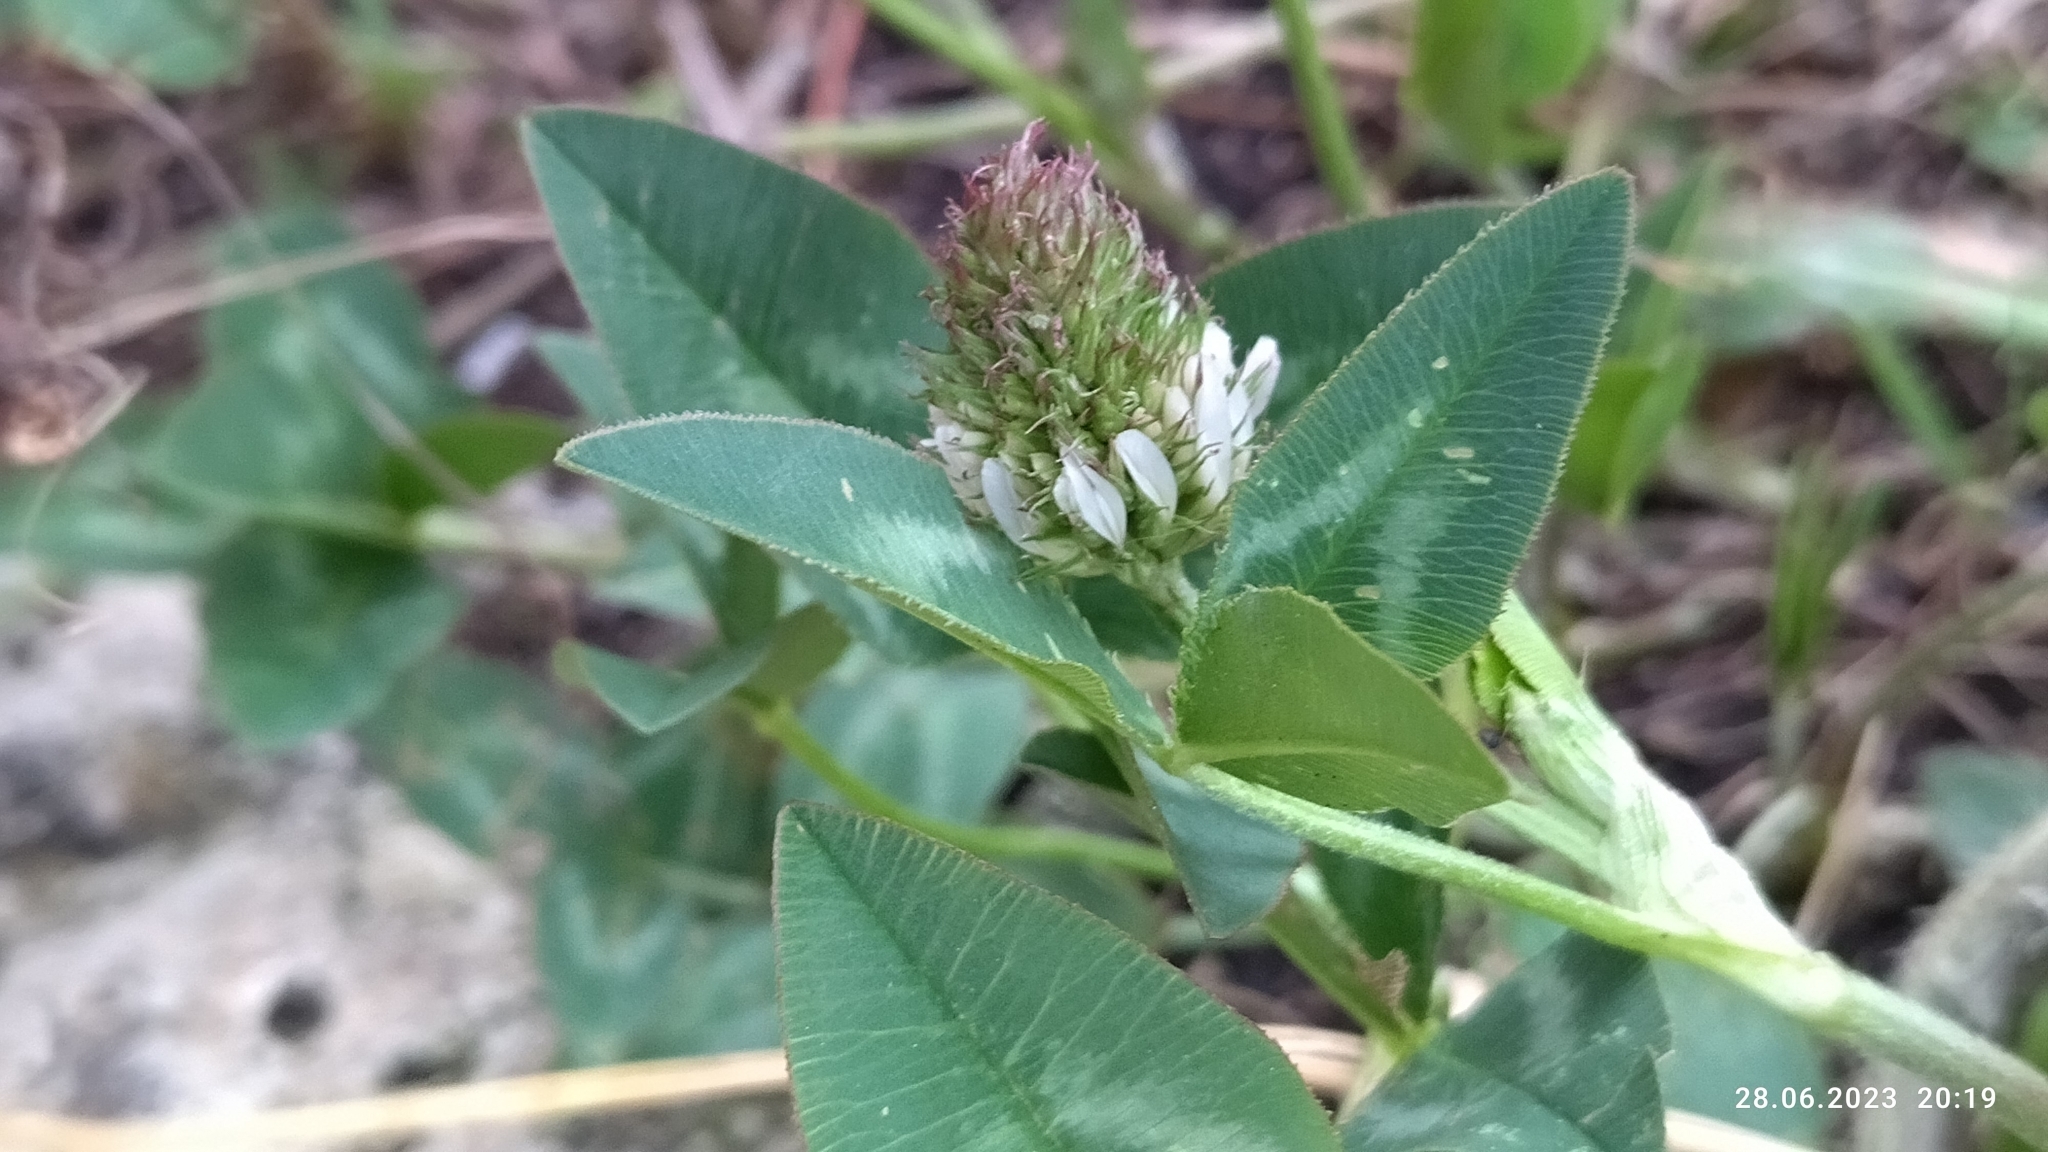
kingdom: Plantae
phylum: Tracheophyta
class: Magnoliopsida
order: Fabales
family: Fabaceae
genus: Trifolium
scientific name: Trifolium pratense
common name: Red clover
